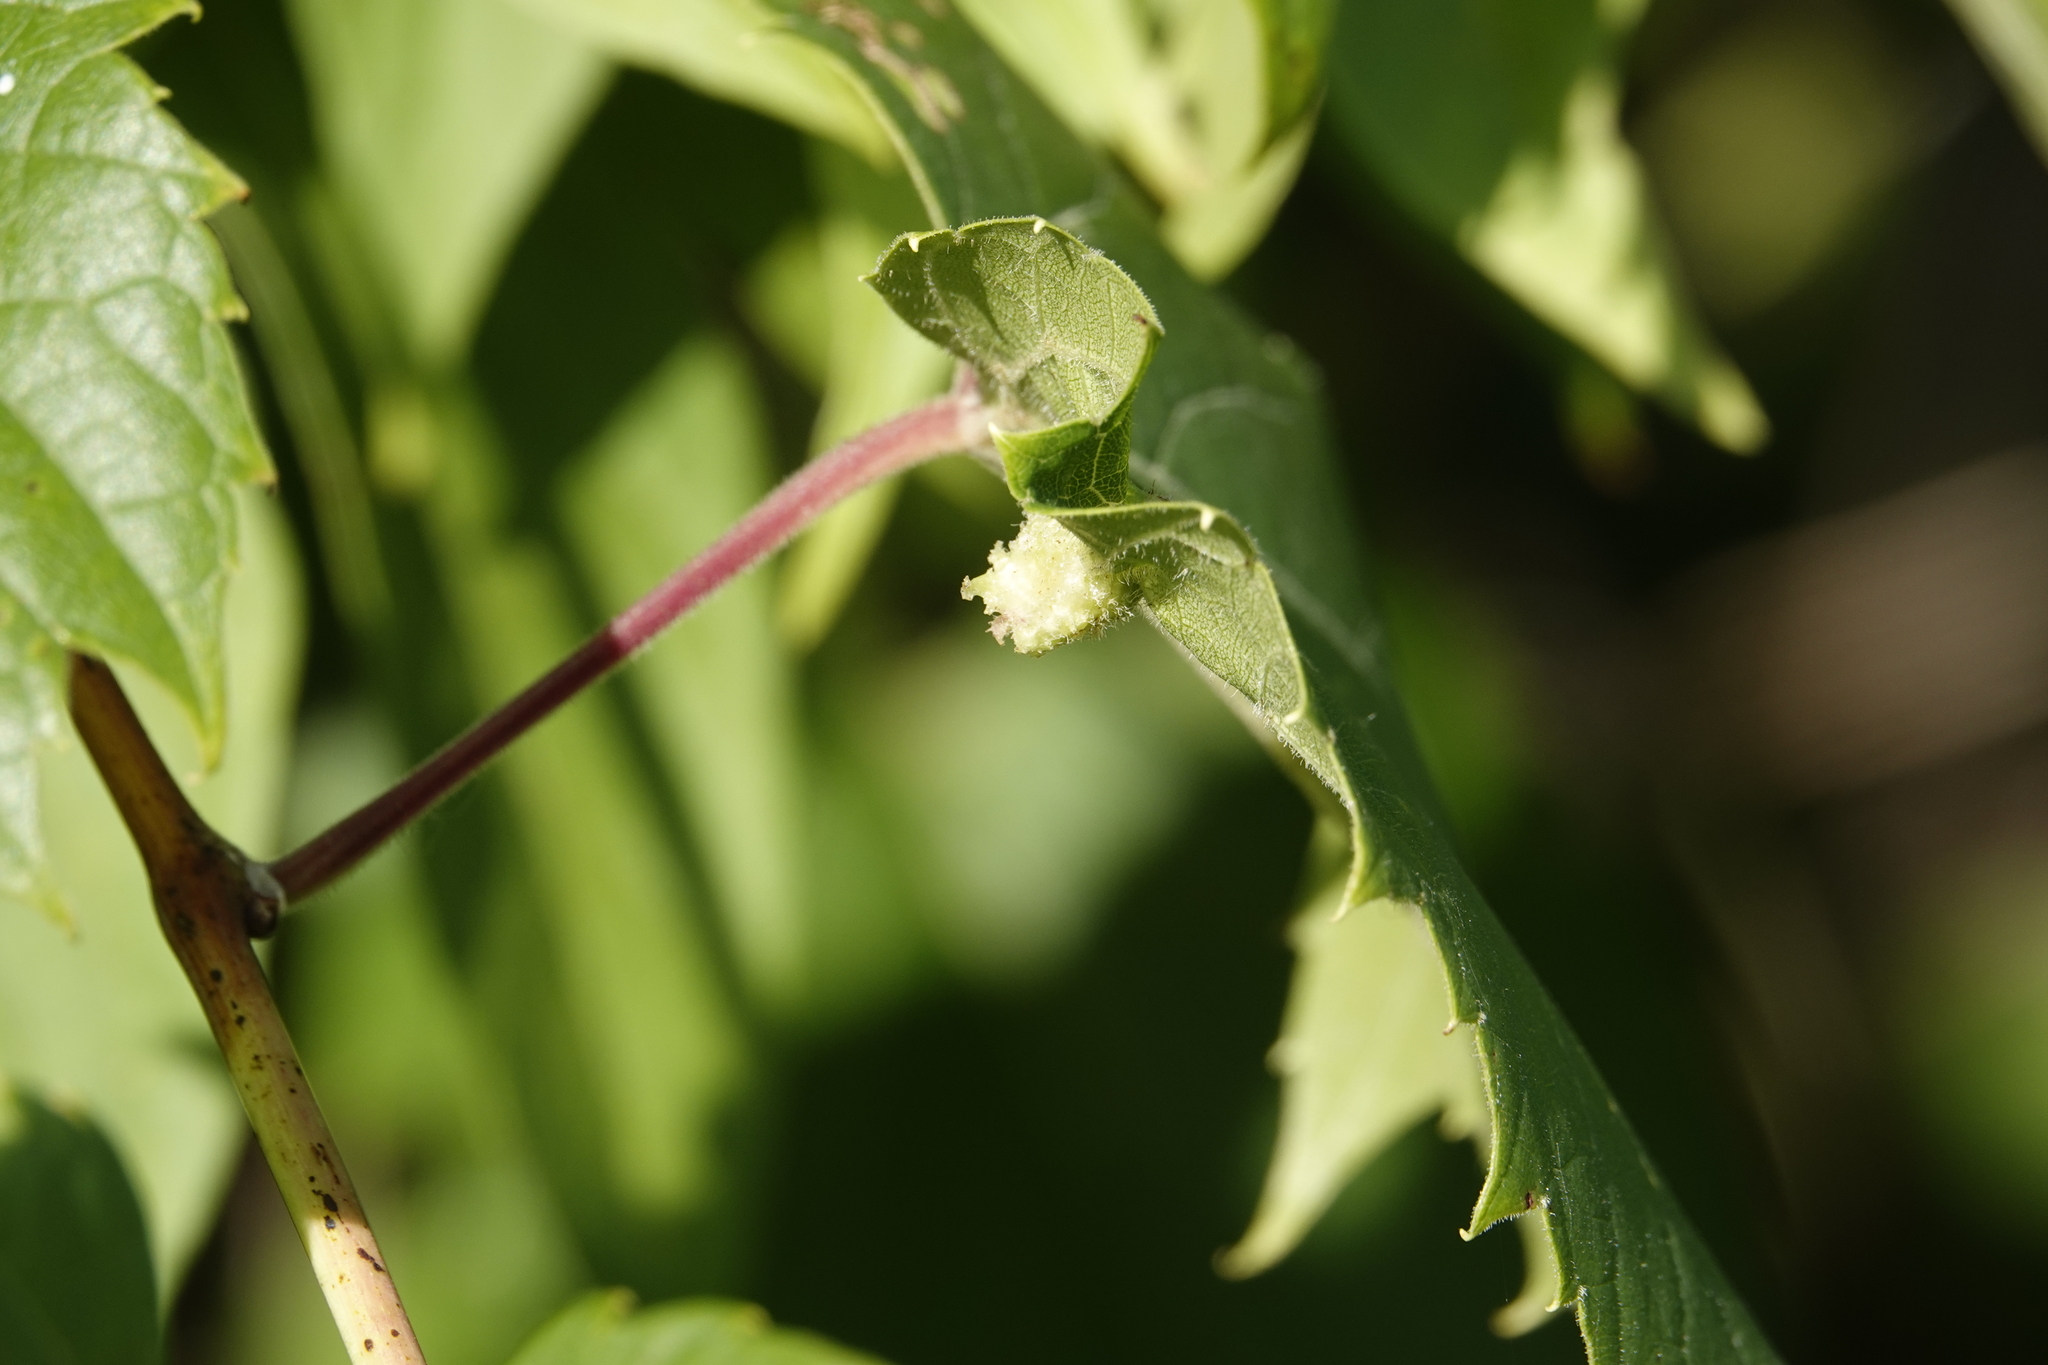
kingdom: Animalia
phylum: Arthropoda
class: Insecta
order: Hemiptera
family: Phylloxeridae
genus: Daktulosphaira
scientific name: Daktulosphaira vitifoliae
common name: Grape phylloxera
